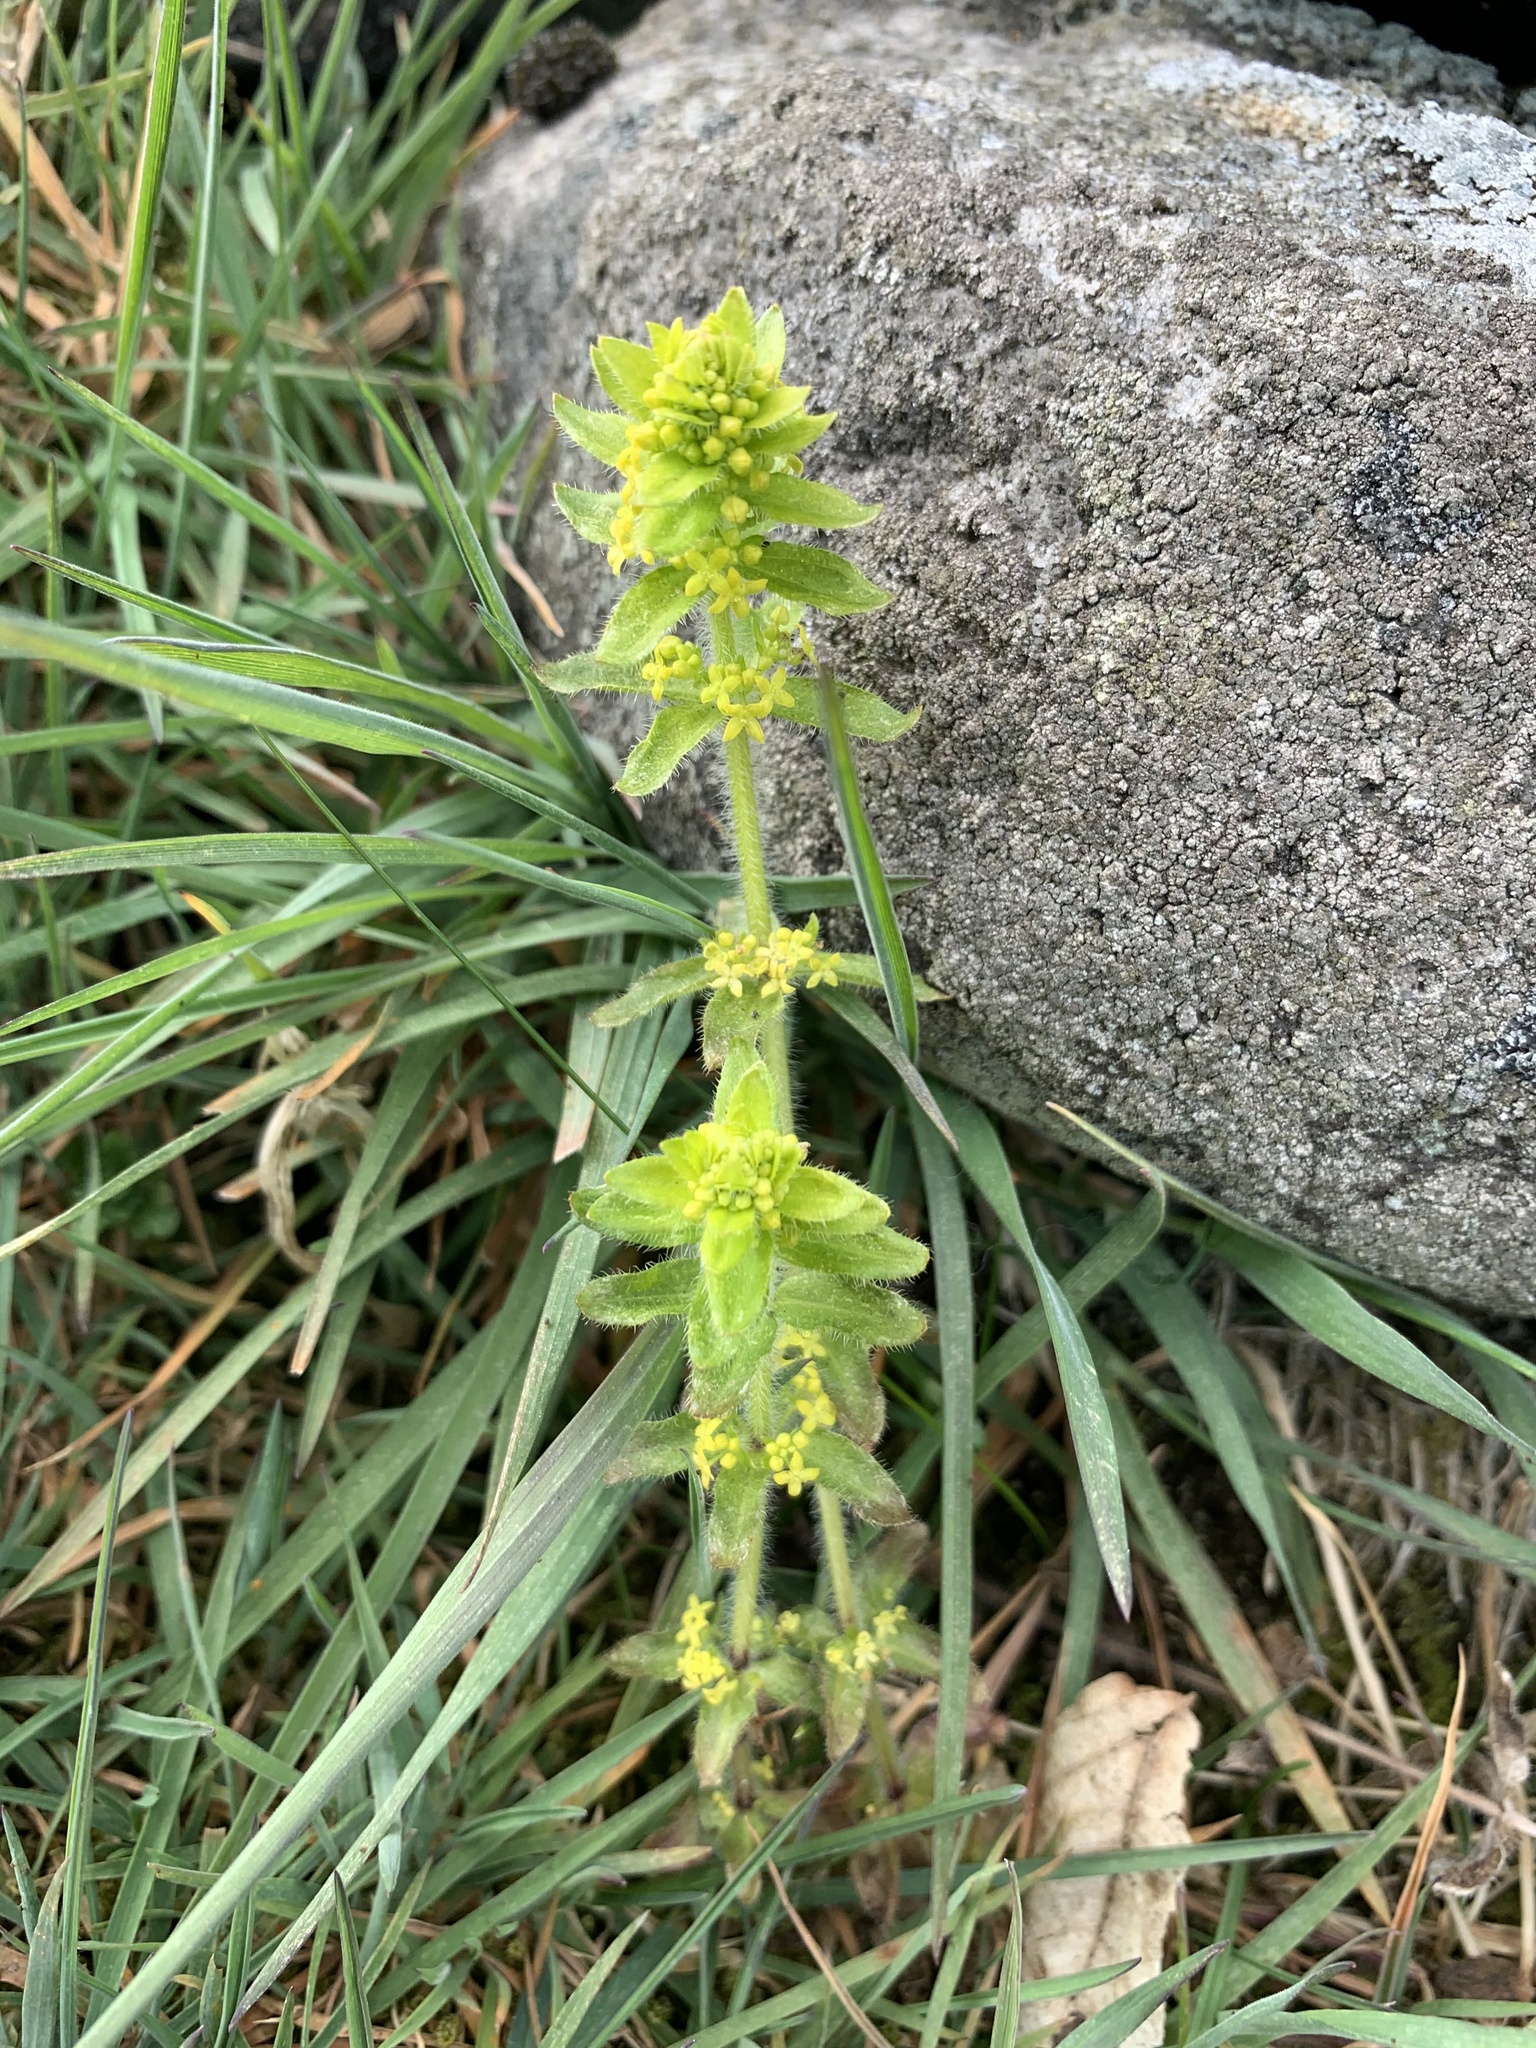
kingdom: Plantae
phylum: Tracheophyta
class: Magnoliopsida
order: Gentianales
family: Rubiaceae
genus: Cruciata
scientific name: Cruciata laevipes
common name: Crosswort
